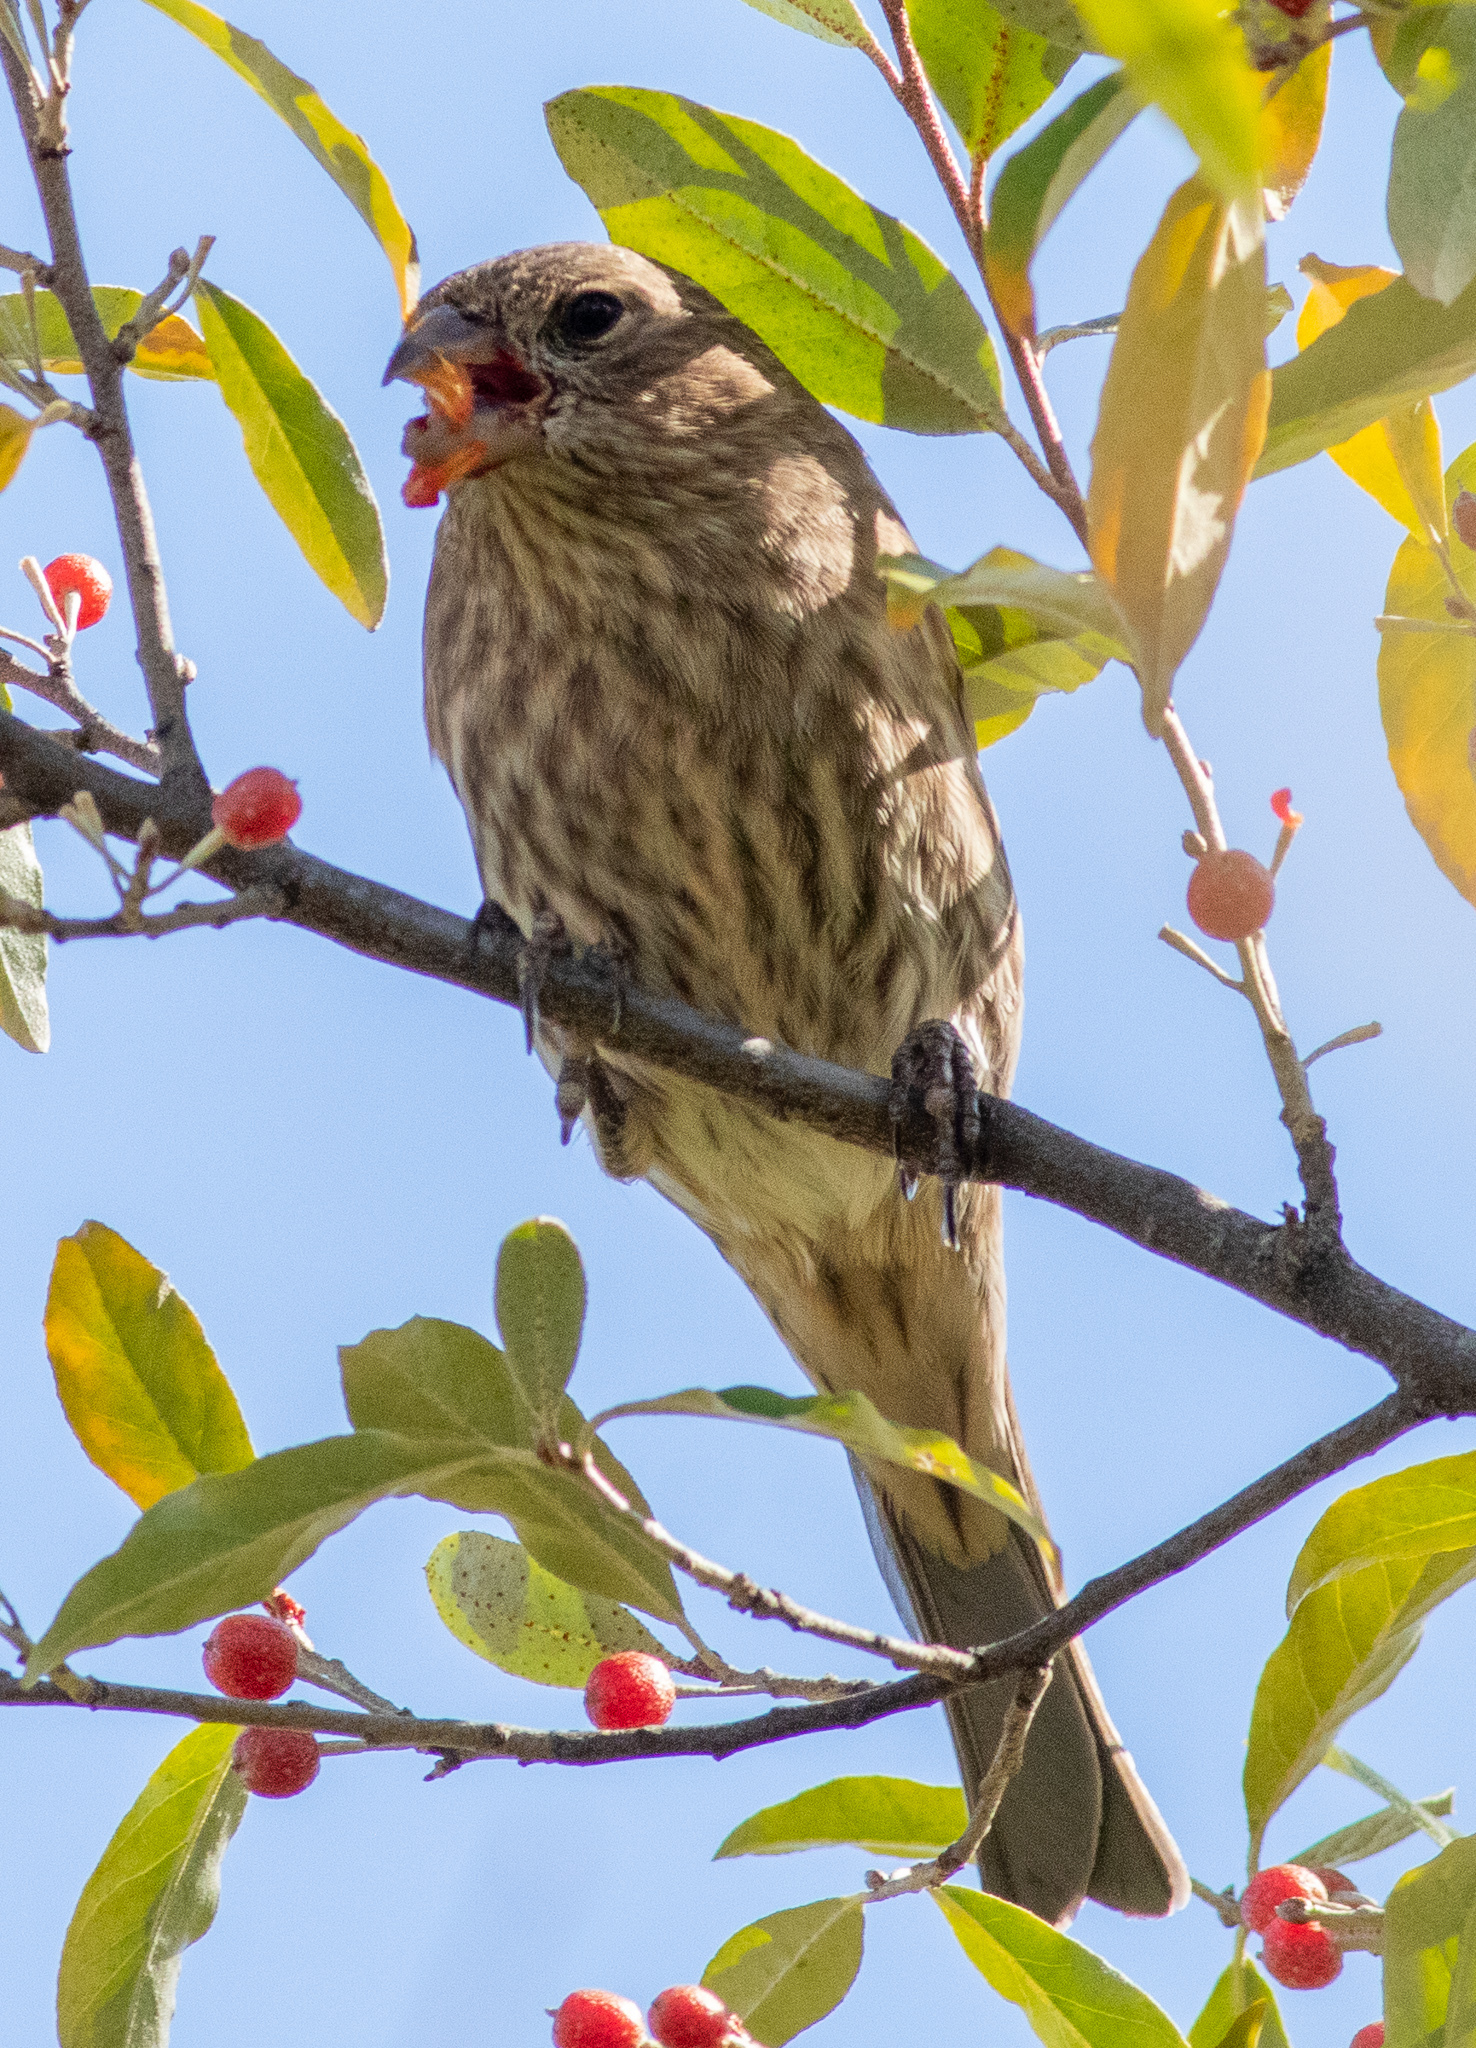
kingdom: Animalia
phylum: Chordata
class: Aves
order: Passeriformes
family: Fringillidae
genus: Haemorhous
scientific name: Haemorhous mexicanus
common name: House finch
